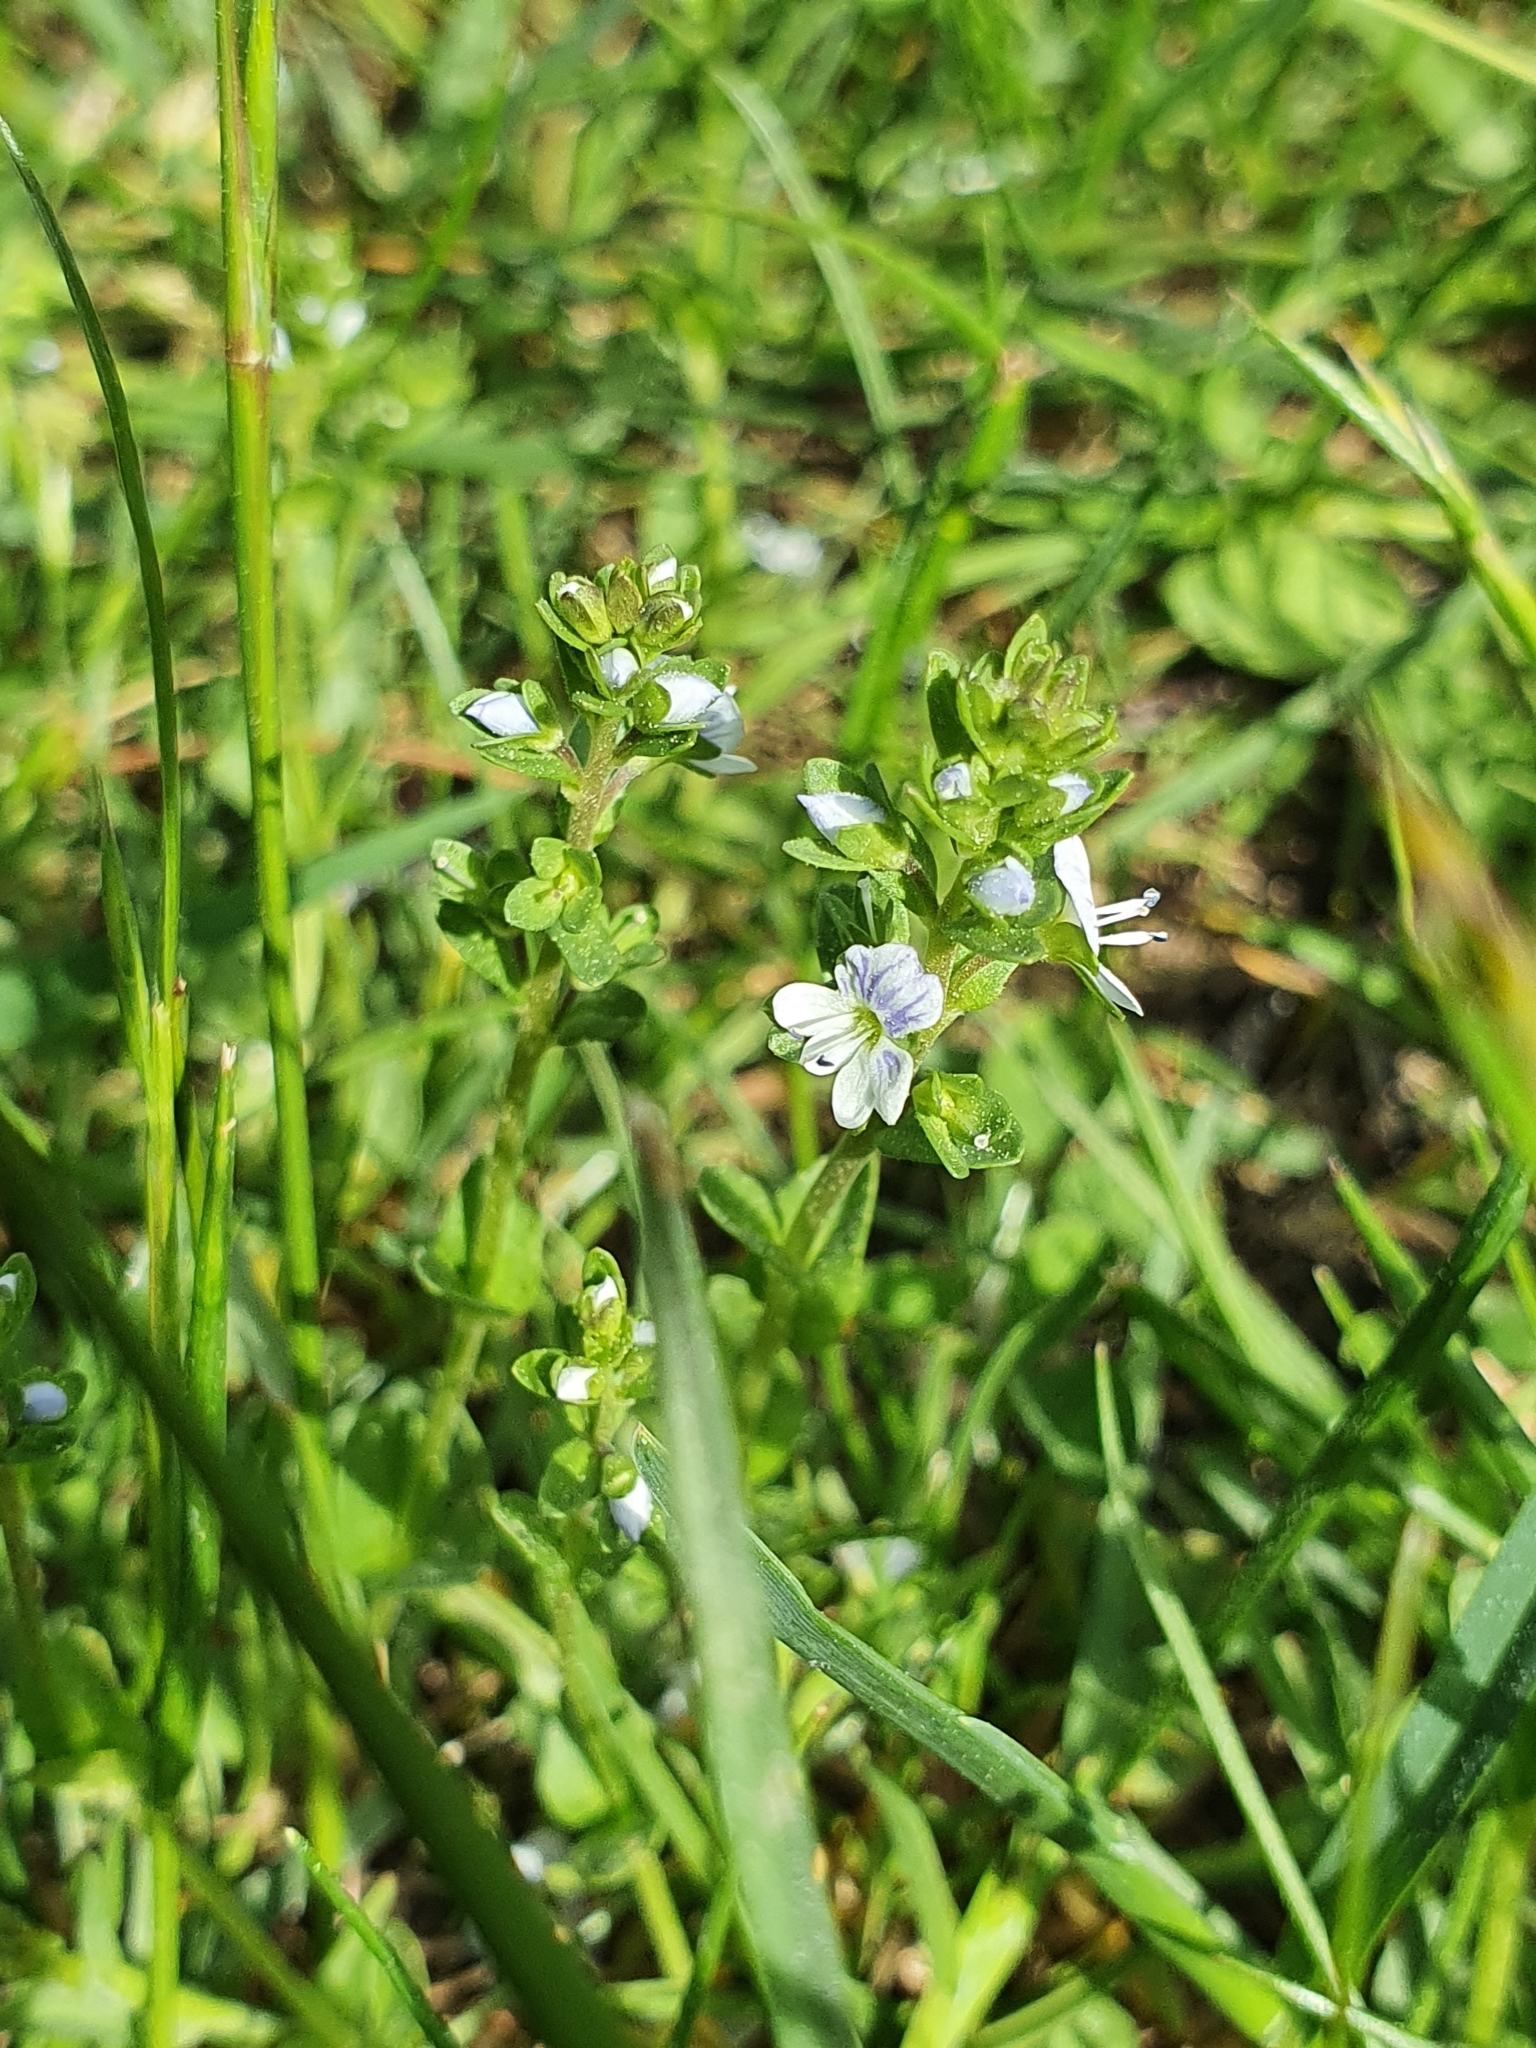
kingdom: Plantae
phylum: Tracheophyta
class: Magnoliopsida
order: Lamiales
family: Plantaginaceae
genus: Veronica
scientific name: Veronica serpyllifolia
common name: Thyme-leaved speedwell
